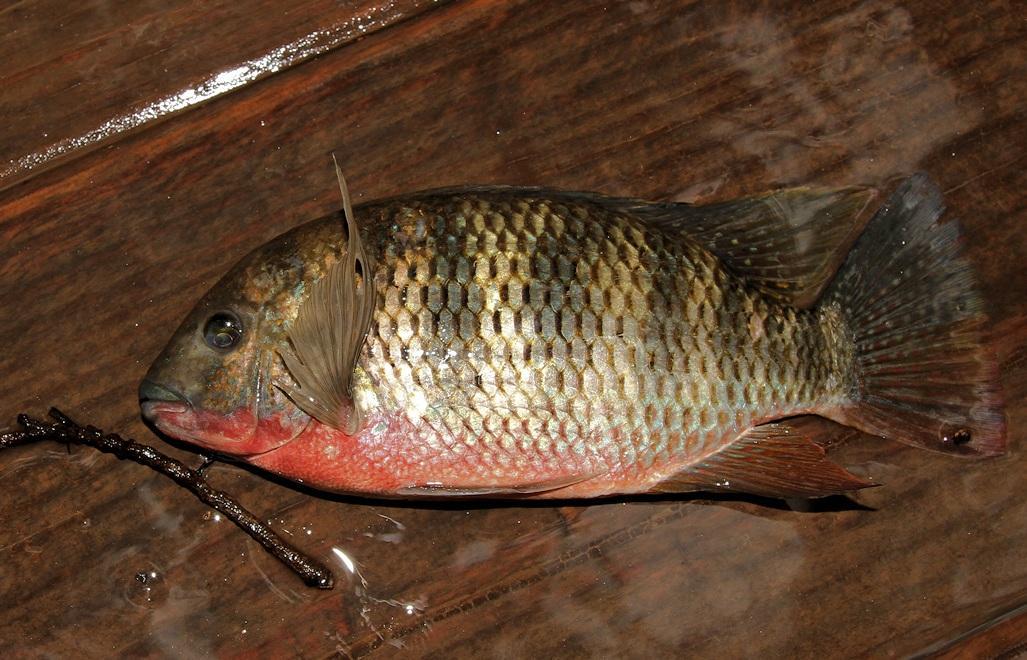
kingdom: Animalia
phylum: Chordata
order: Perciformes
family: Cichlidae
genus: Coptodon
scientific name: Coptodon rendalli
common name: Redbreast tilapia
